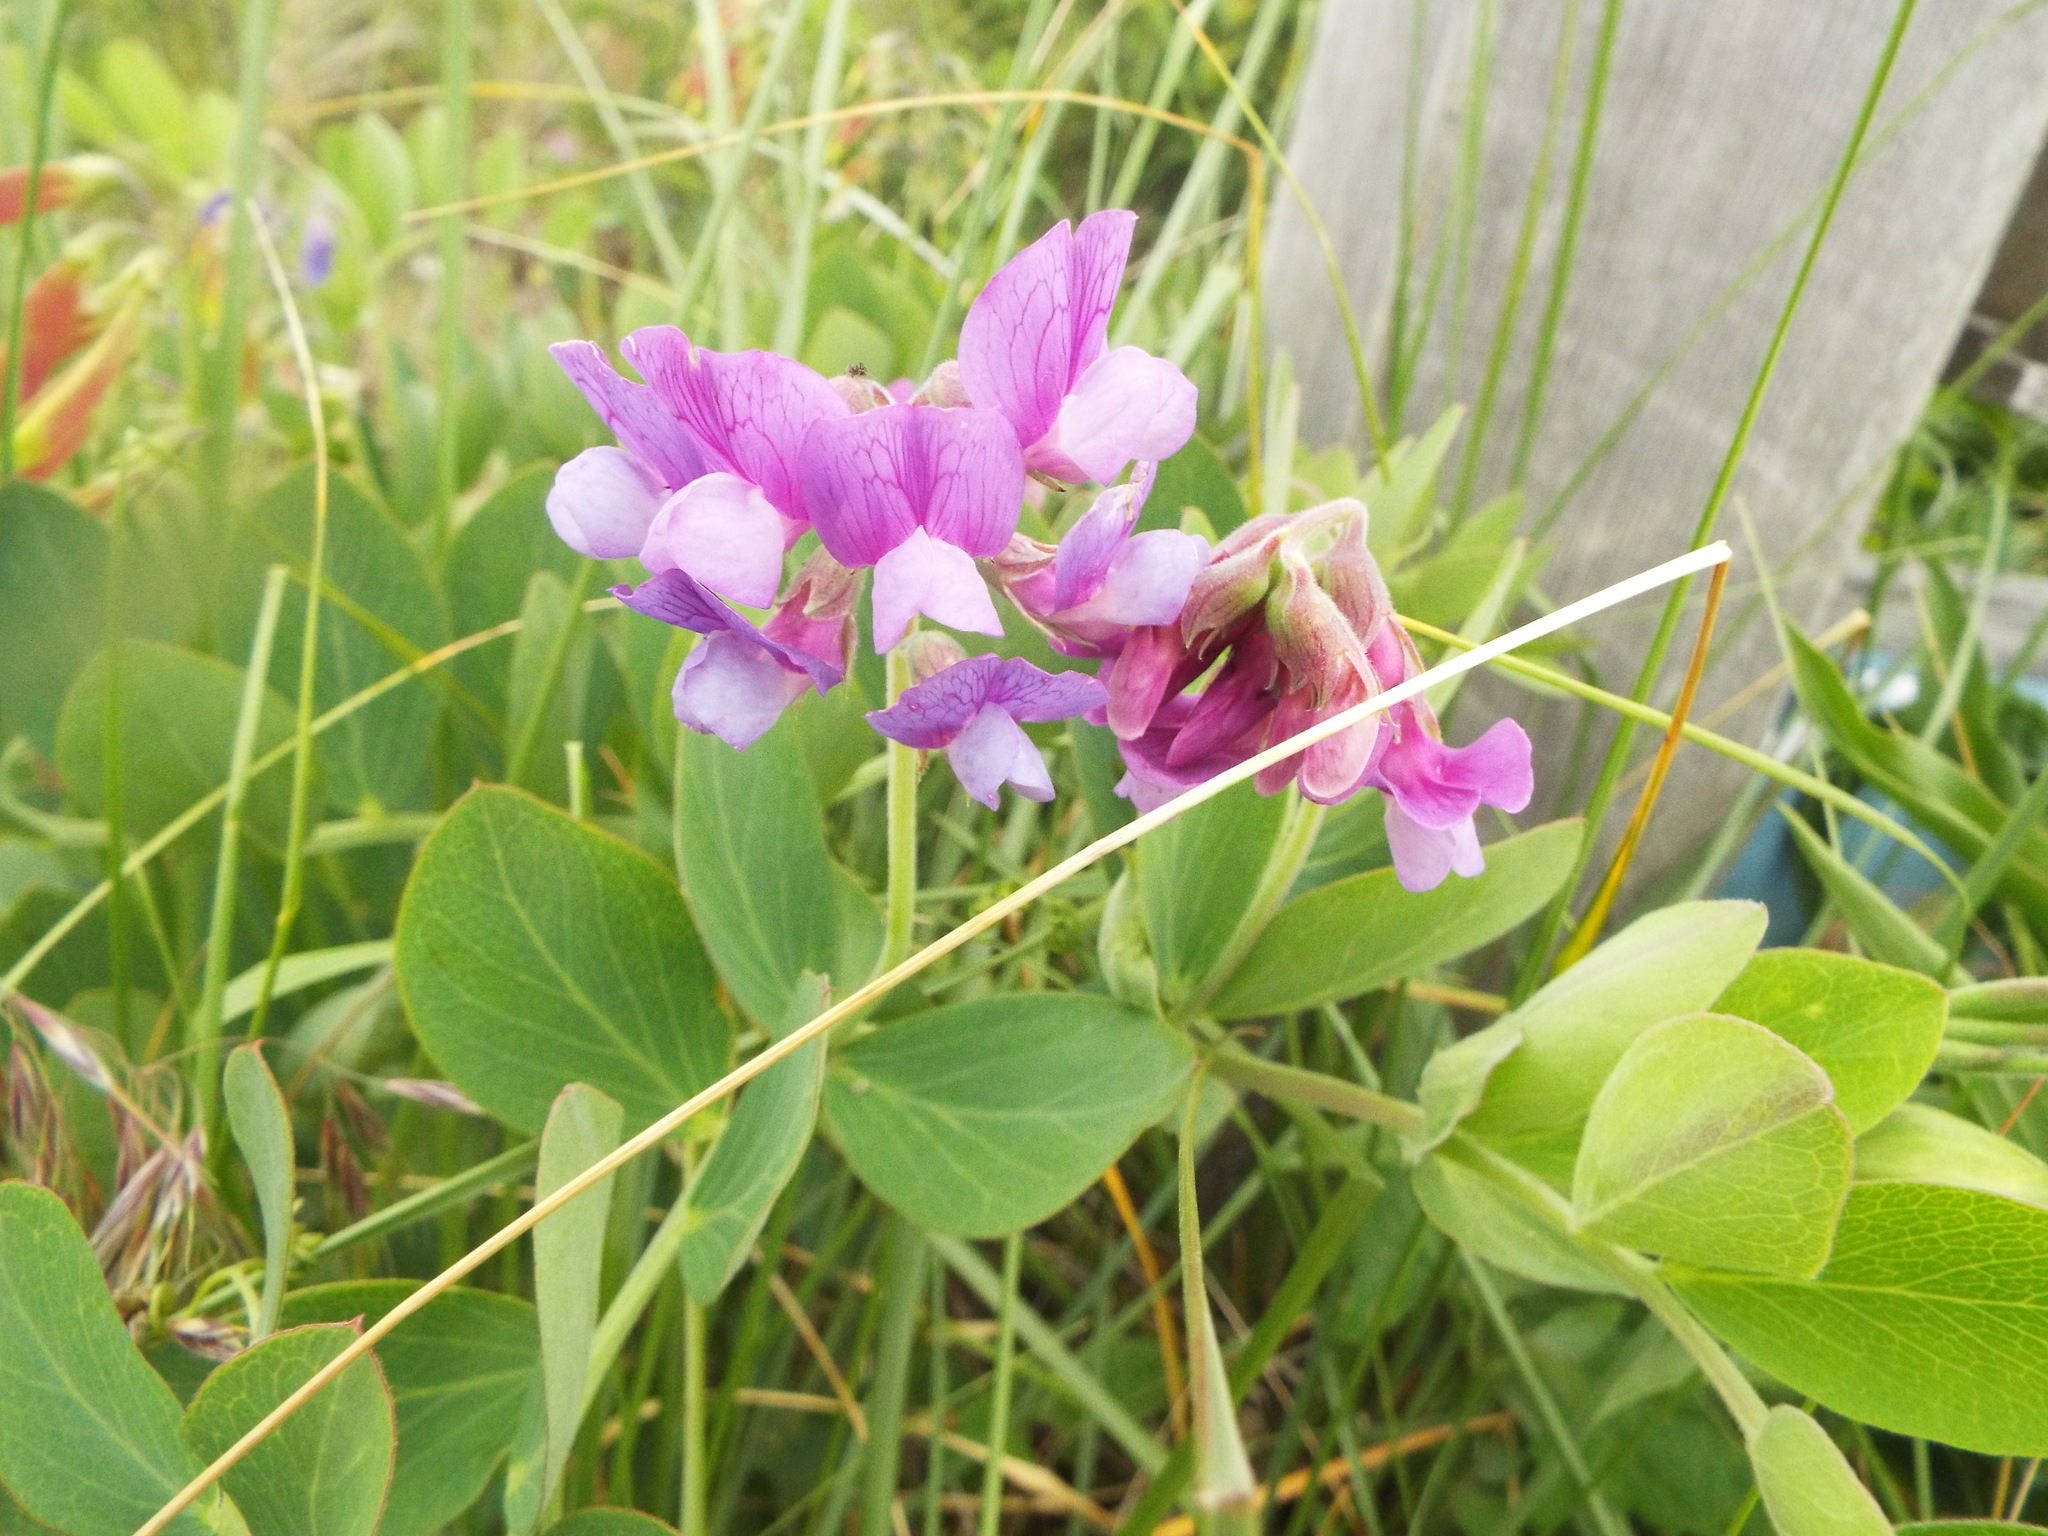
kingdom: Plantae
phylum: Tracheophyta
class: Magnoliopsida
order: Fabales
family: Fabaceae
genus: Lathyrus
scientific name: Lathyrus japonicus
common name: Sea pea
